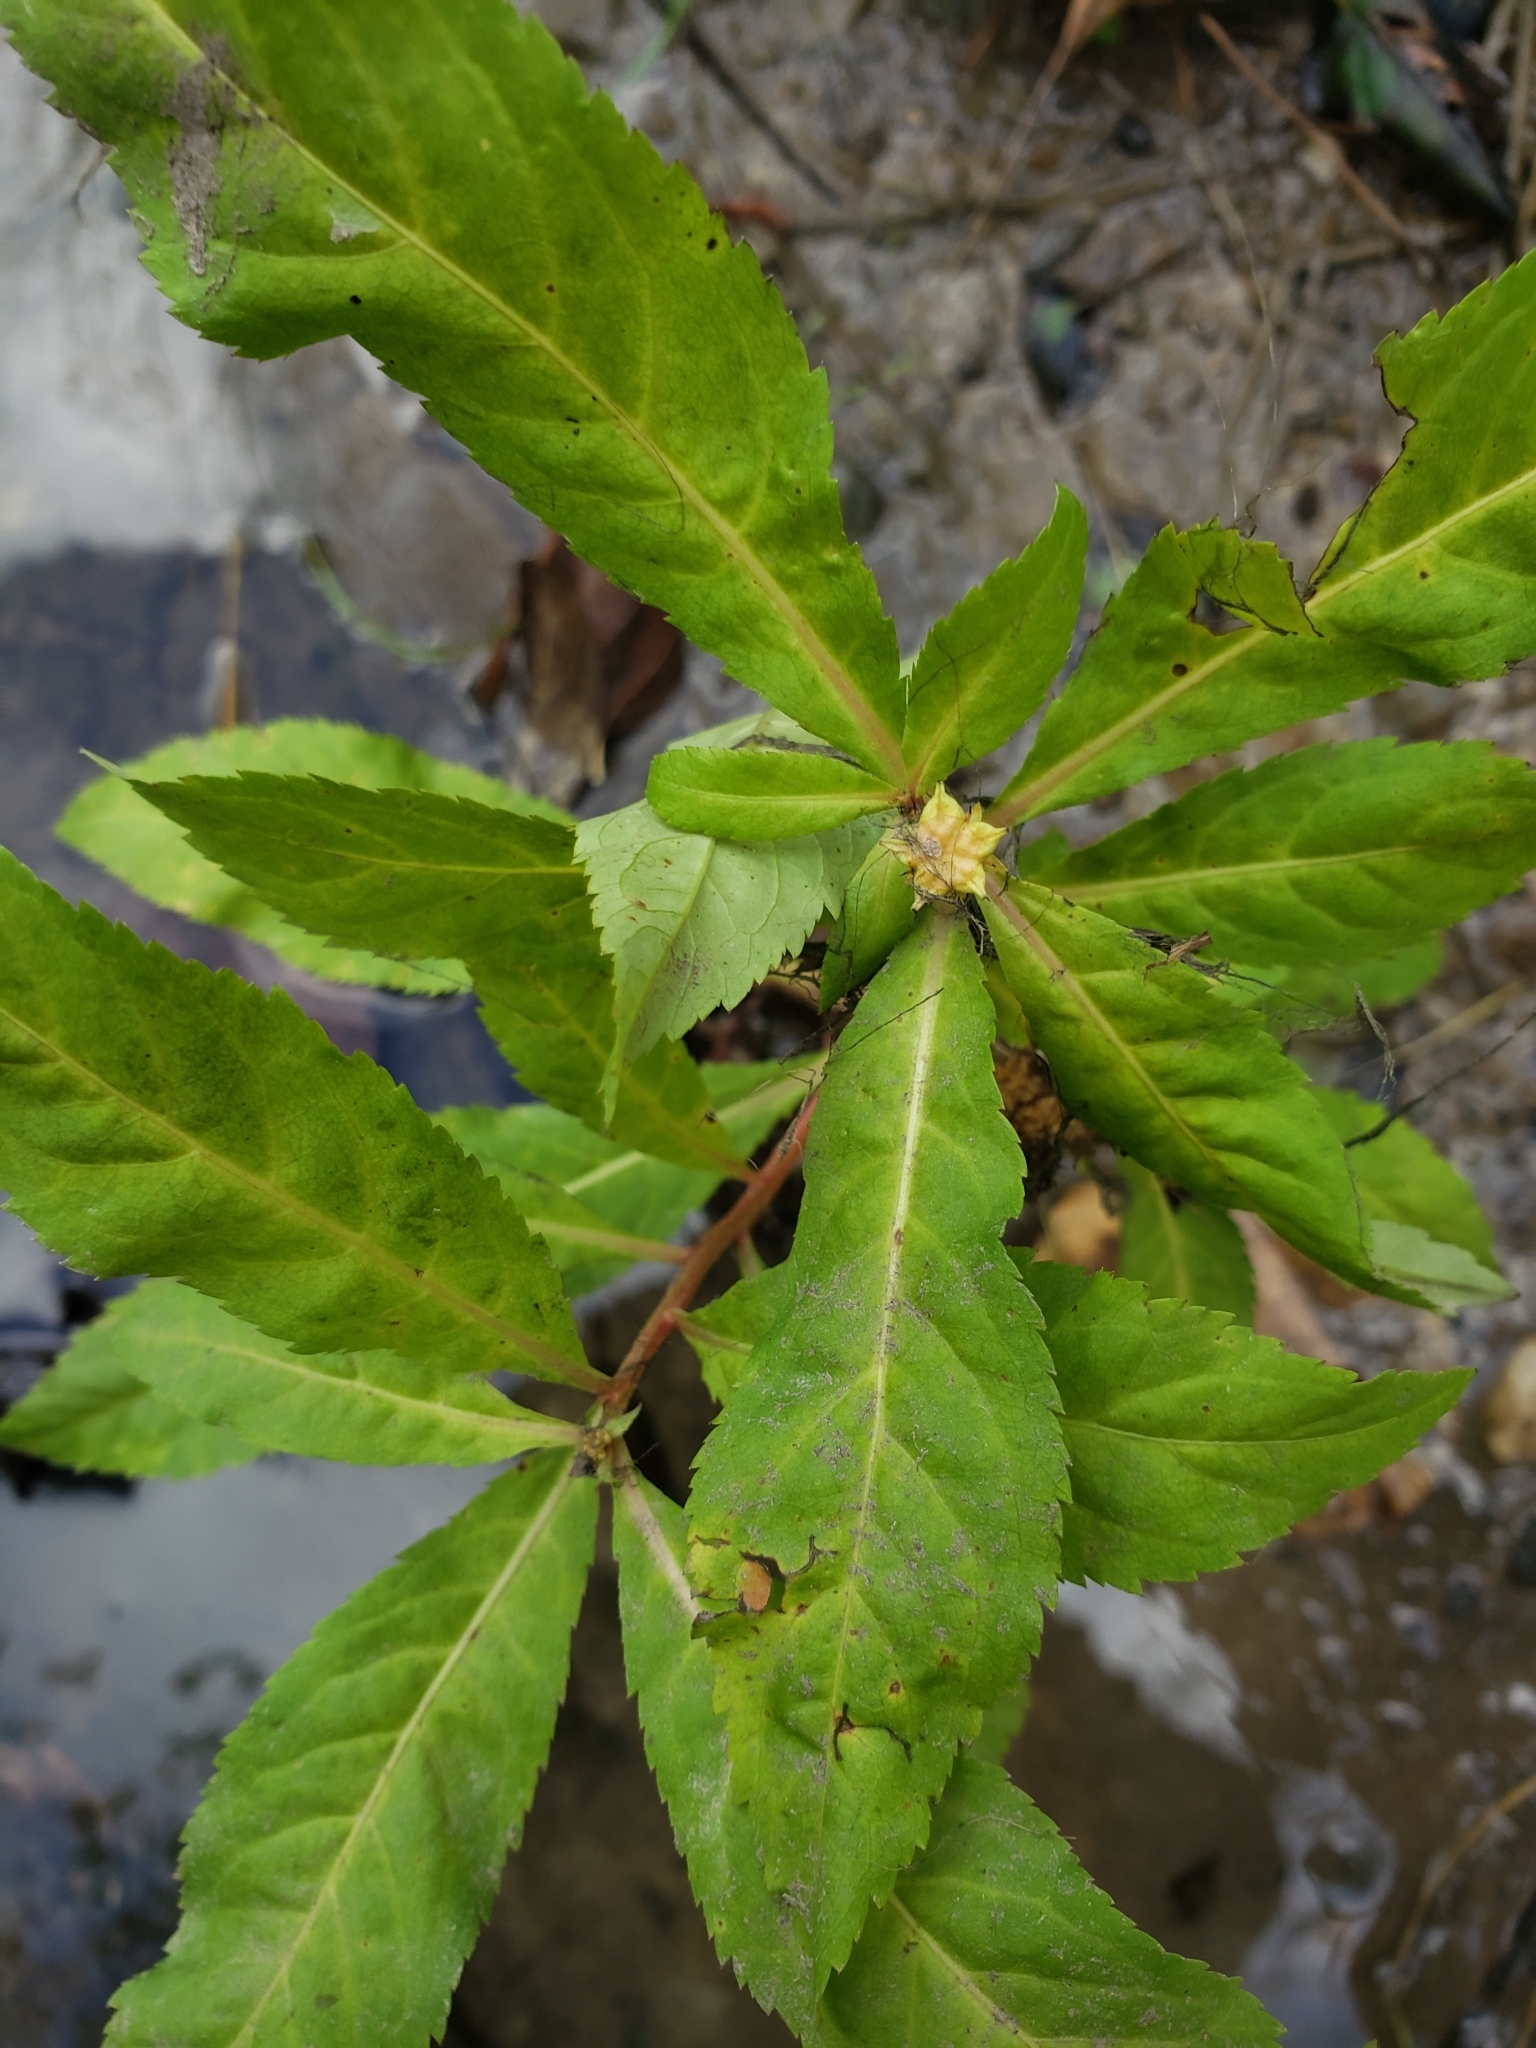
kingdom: Plantae
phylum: Tracheophyta
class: Magnoliopsida
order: Saxifragales
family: Penthoraceae
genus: Penthorum
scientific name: Penthorum sedoides
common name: Ditch stonecrop
